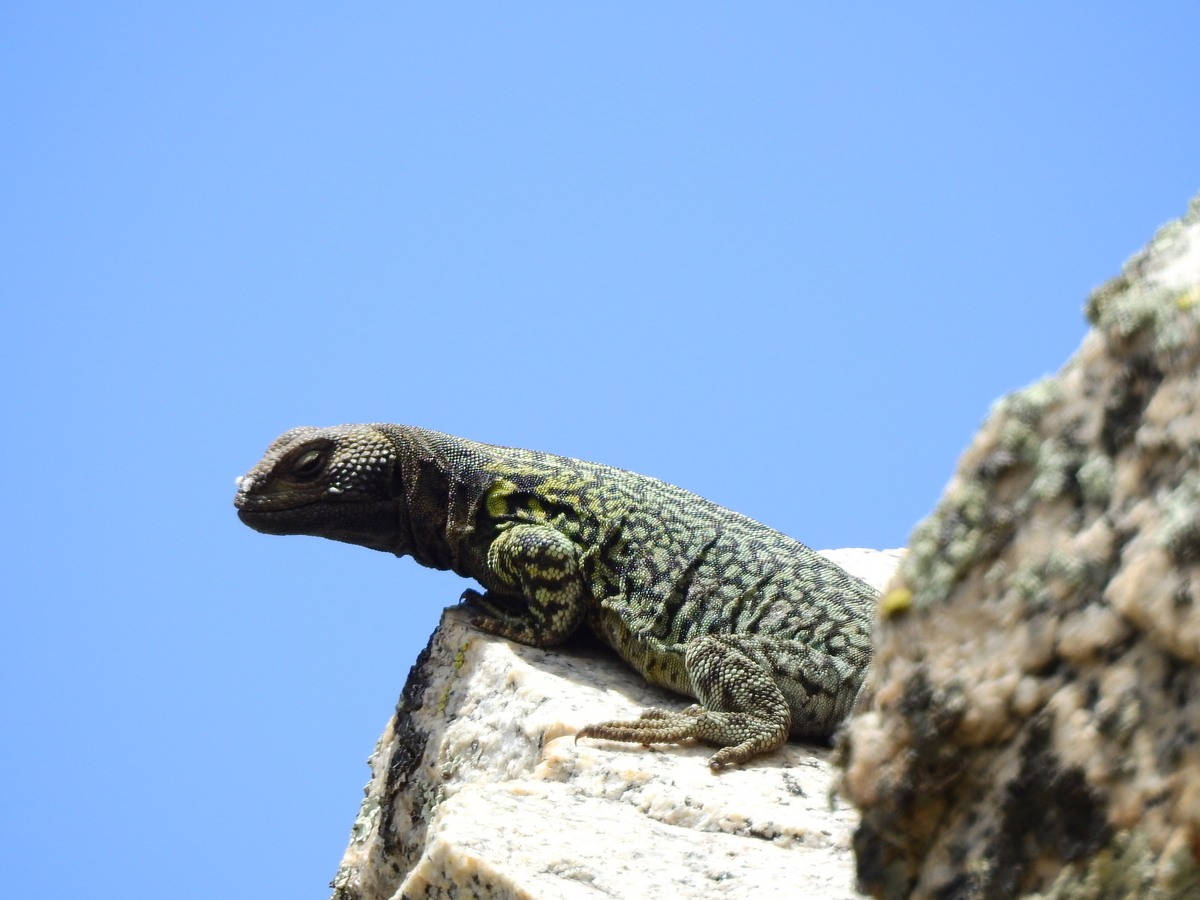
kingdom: Animalia
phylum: Chordata
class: Squamata
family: Liolaemidae
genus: Phymaturus
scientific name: Phymaturus palluma
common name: High mountain lizard
